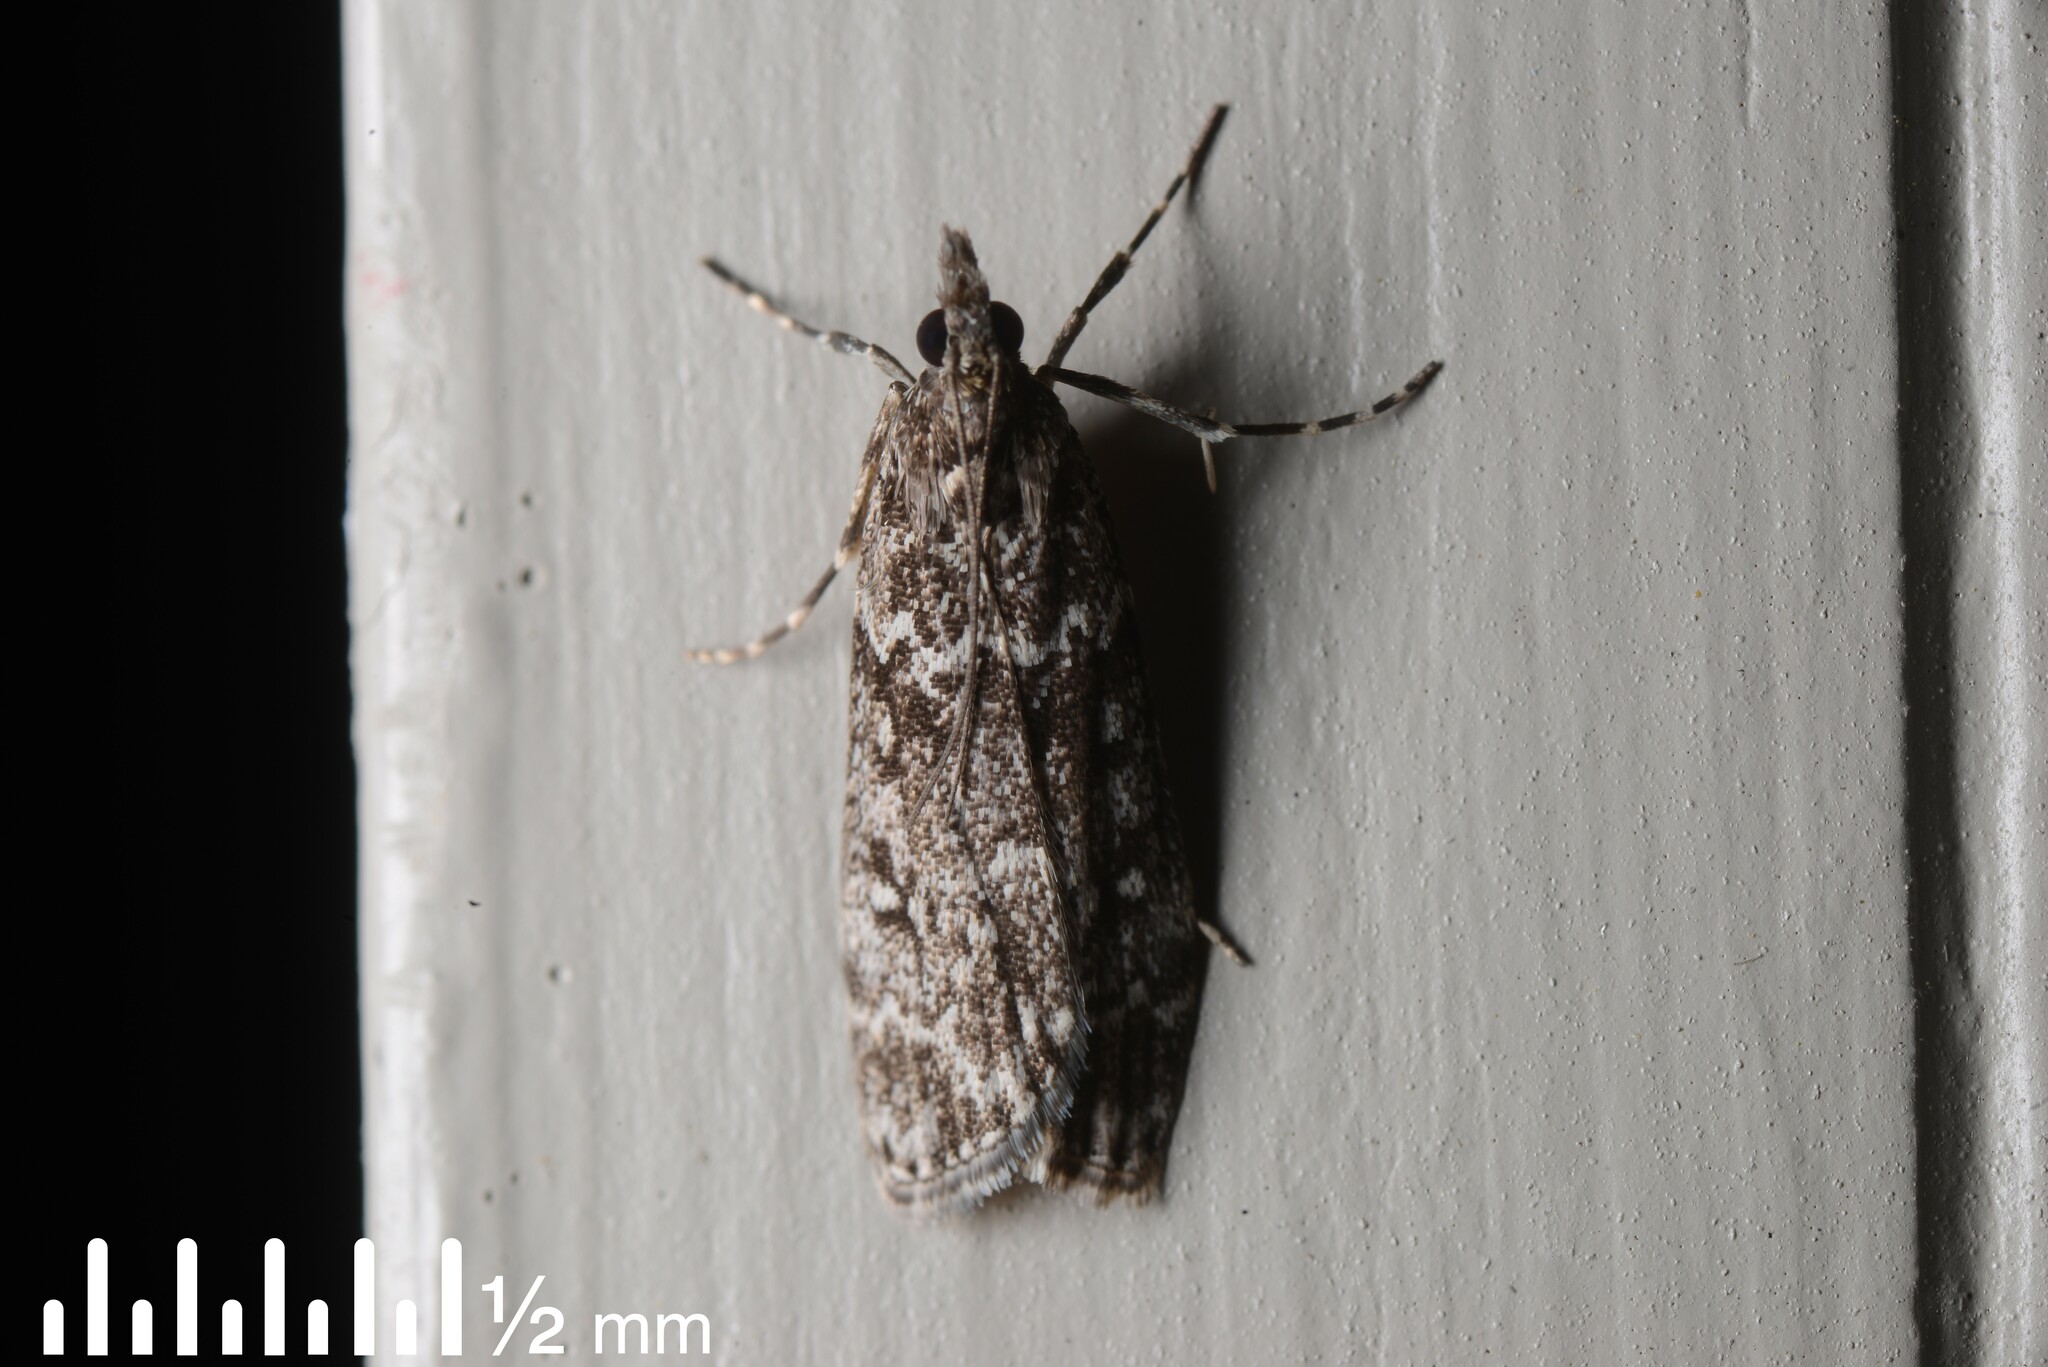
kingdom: Animalia
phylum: Arthropoda
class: Insecta
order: Lepidoptera
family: Crambidae
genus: Eudonia
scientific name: Eudonia philerga
